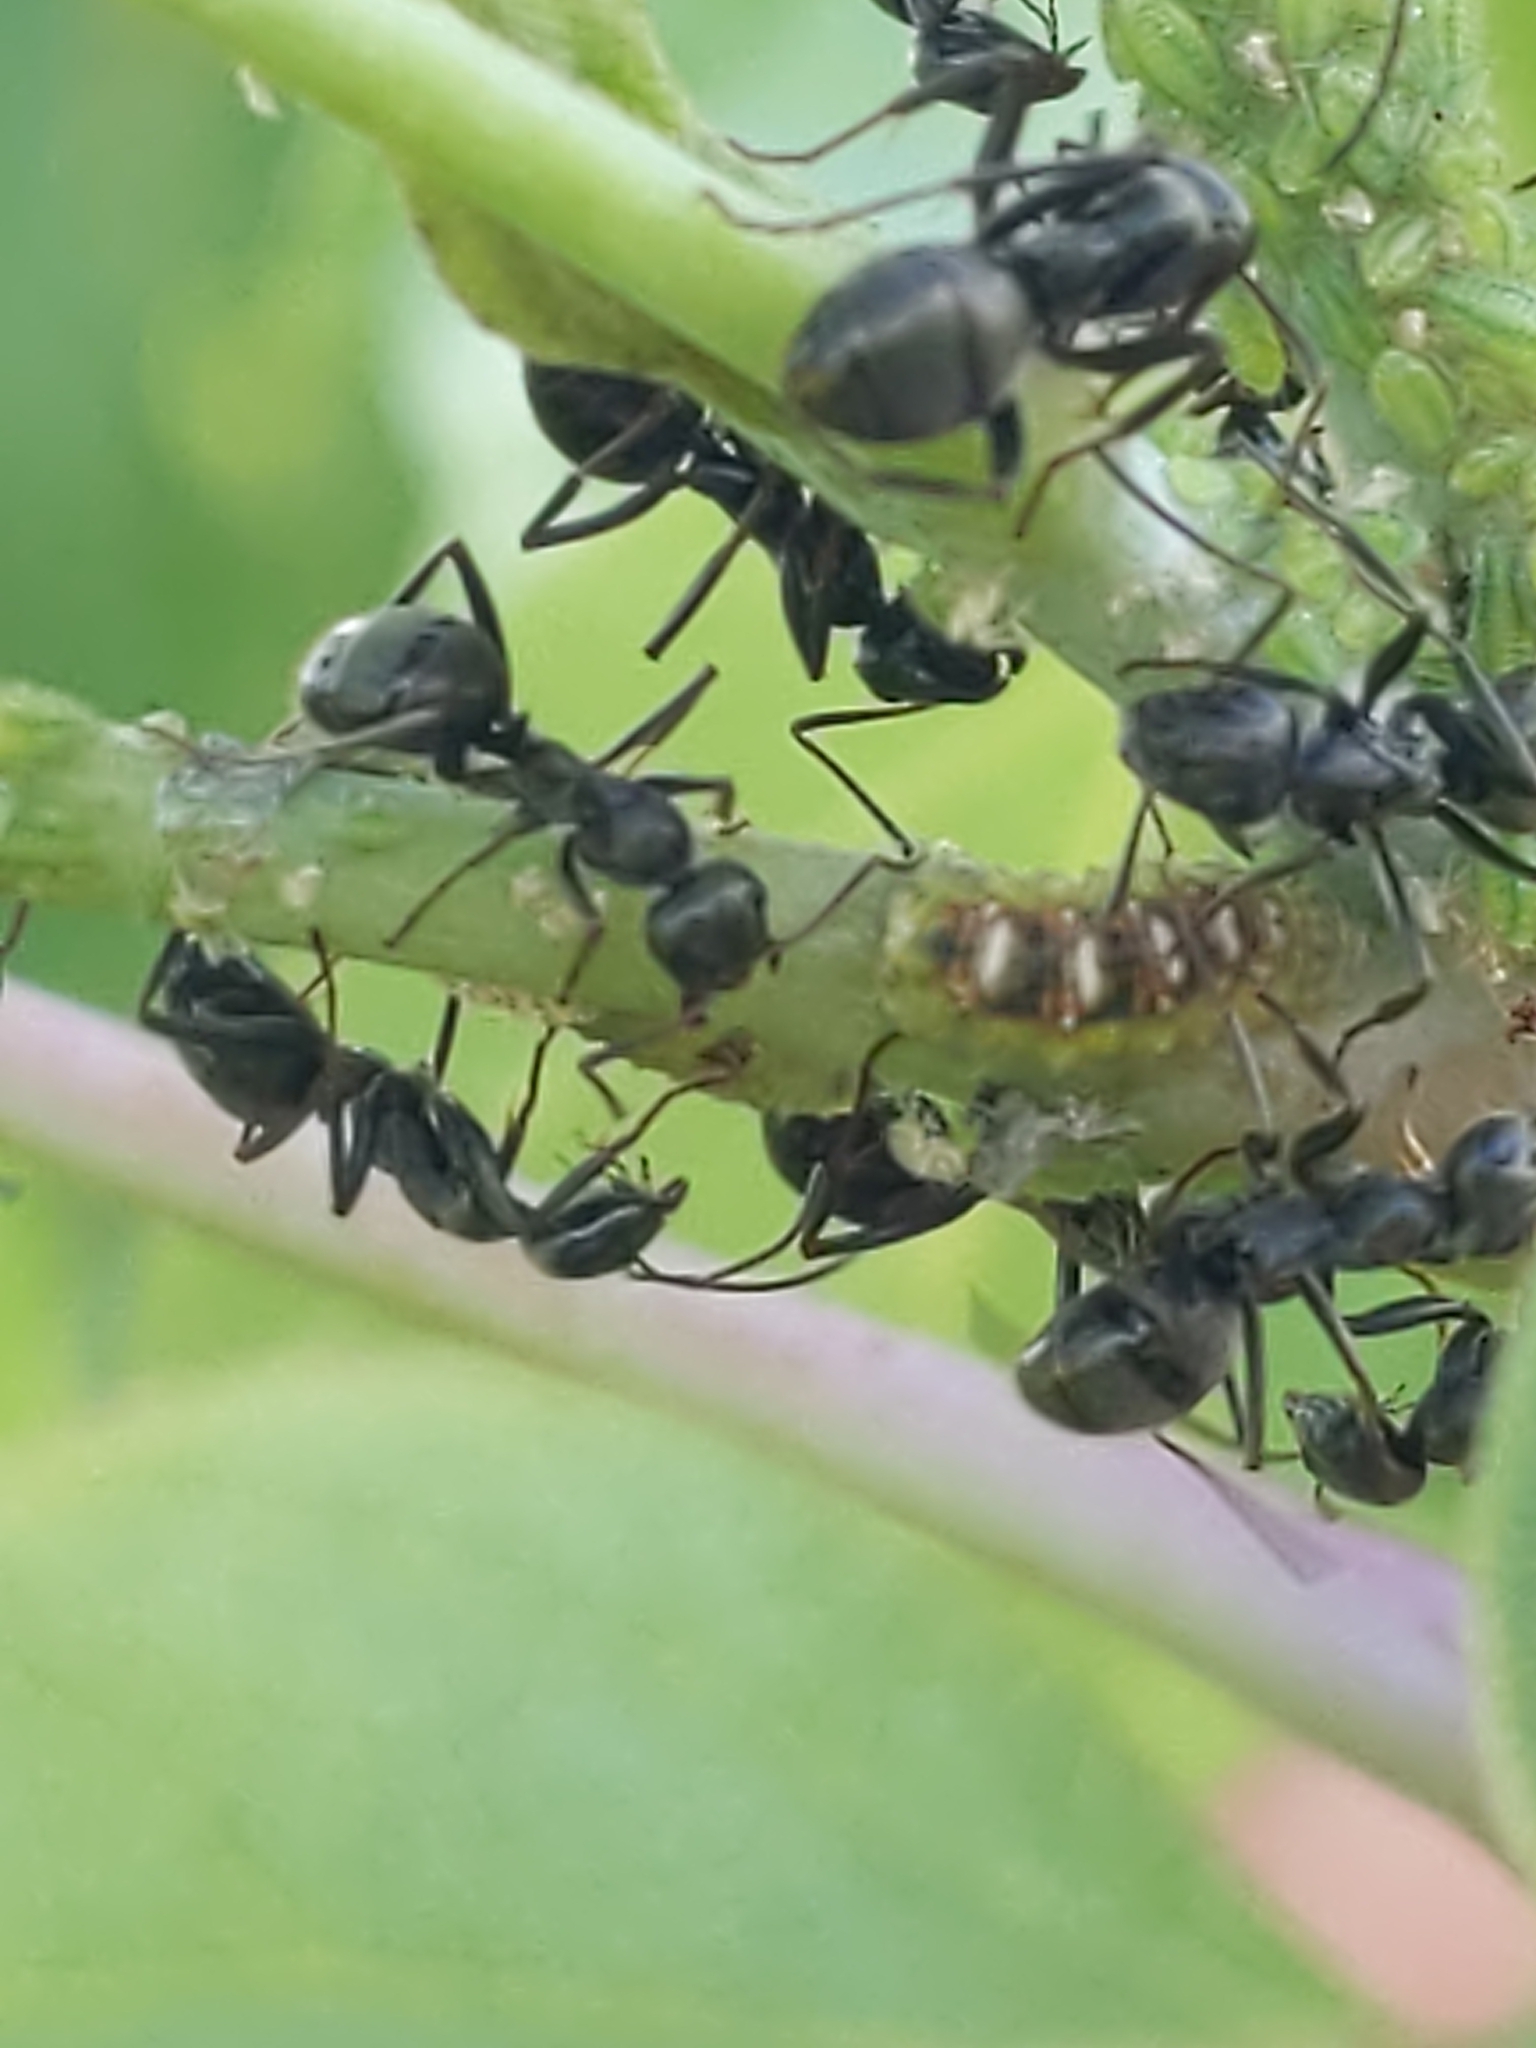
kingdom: Animalia
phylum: Arthropoda
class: Insecta
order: Diptera
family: Syrphidae
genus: Eupeodes
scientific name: Eupeodes pomus
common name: Short-tailed aphideater
